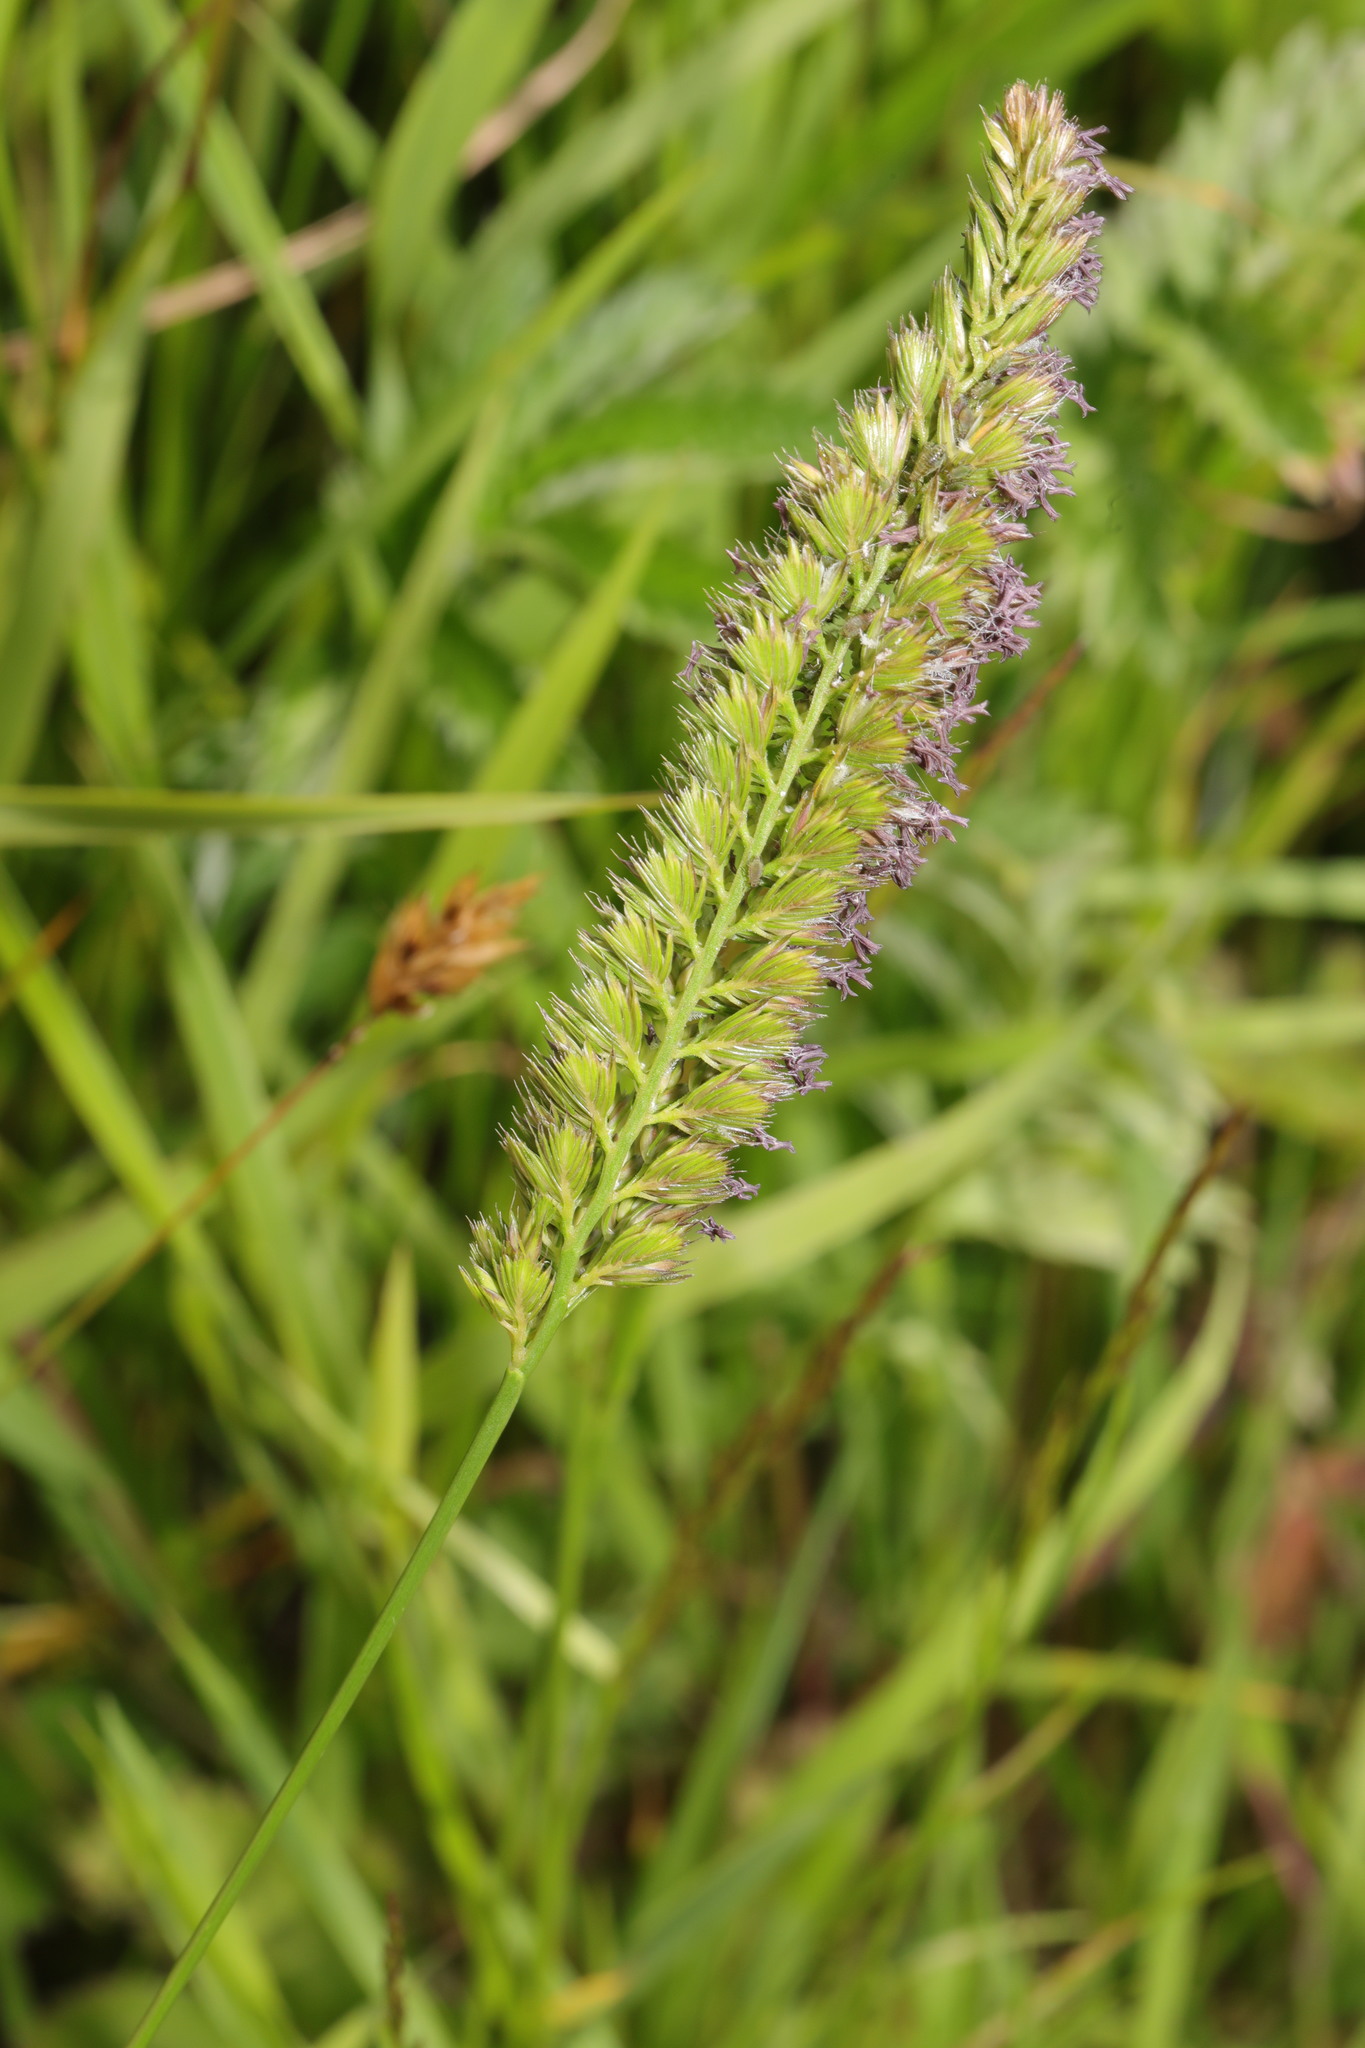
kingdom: Plantae
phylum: Tracheophyta
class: Liliopsida
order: Poales
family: Poaceae
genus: Cynosurus
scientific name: Cynosurus cristatus
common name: Crested dog's-tail
